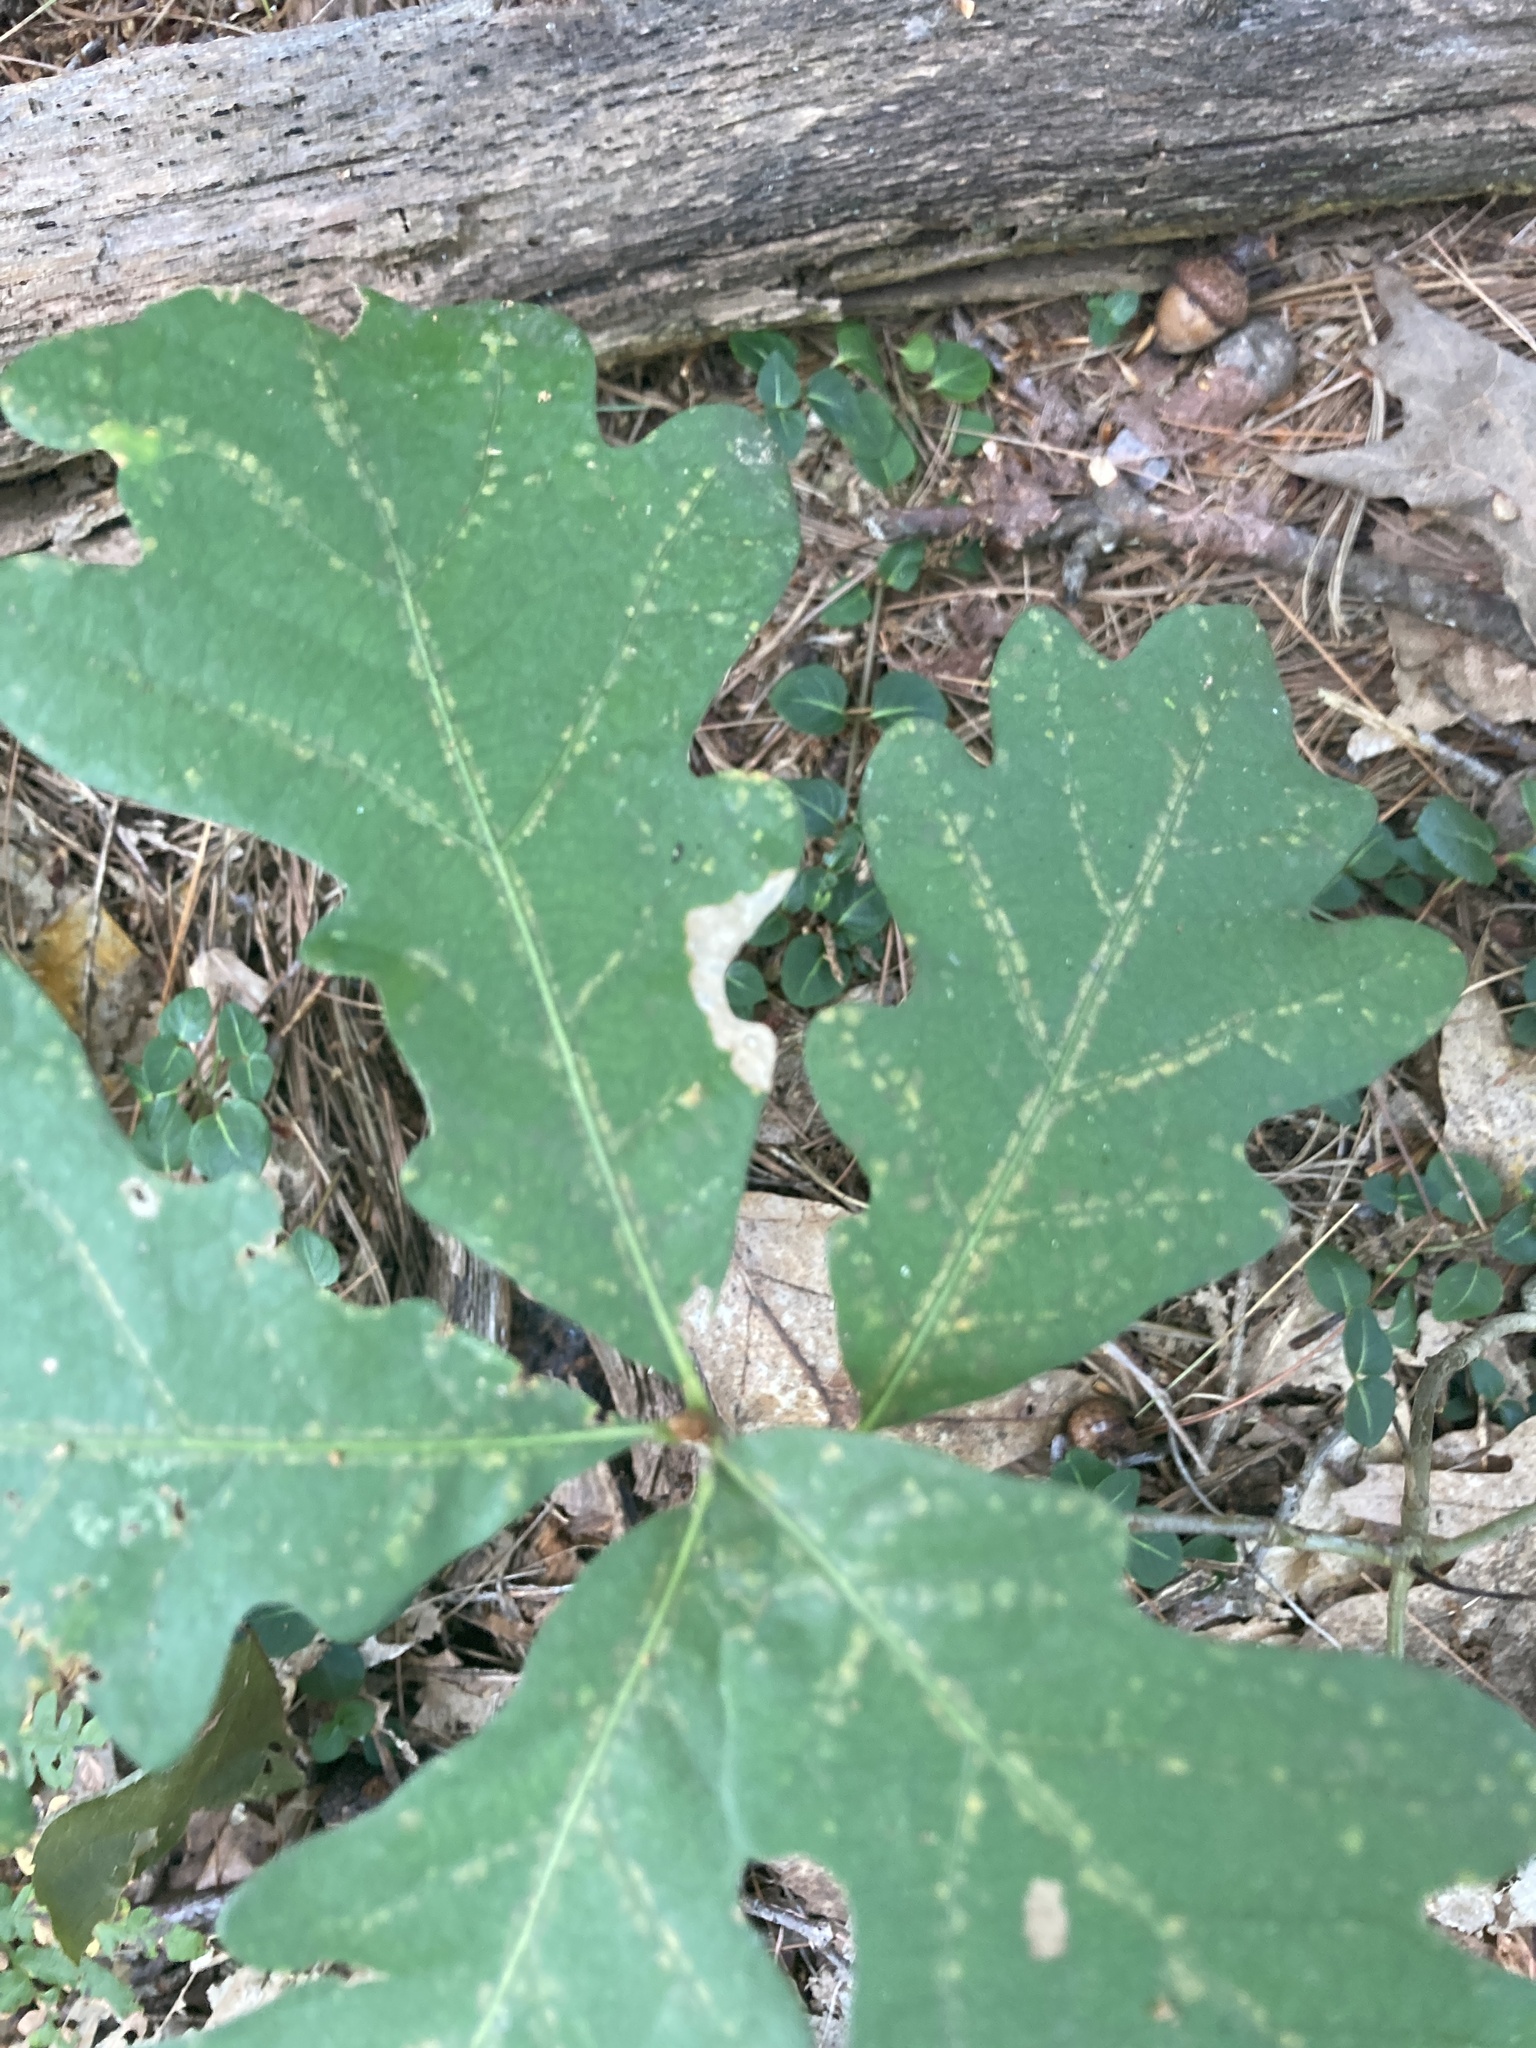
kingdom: Plantae
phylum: Tracheophyta
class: Magnoliopsida
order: Fagales
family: Fagaceae
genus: Quercus
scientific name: Quercus alba
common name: White oak
